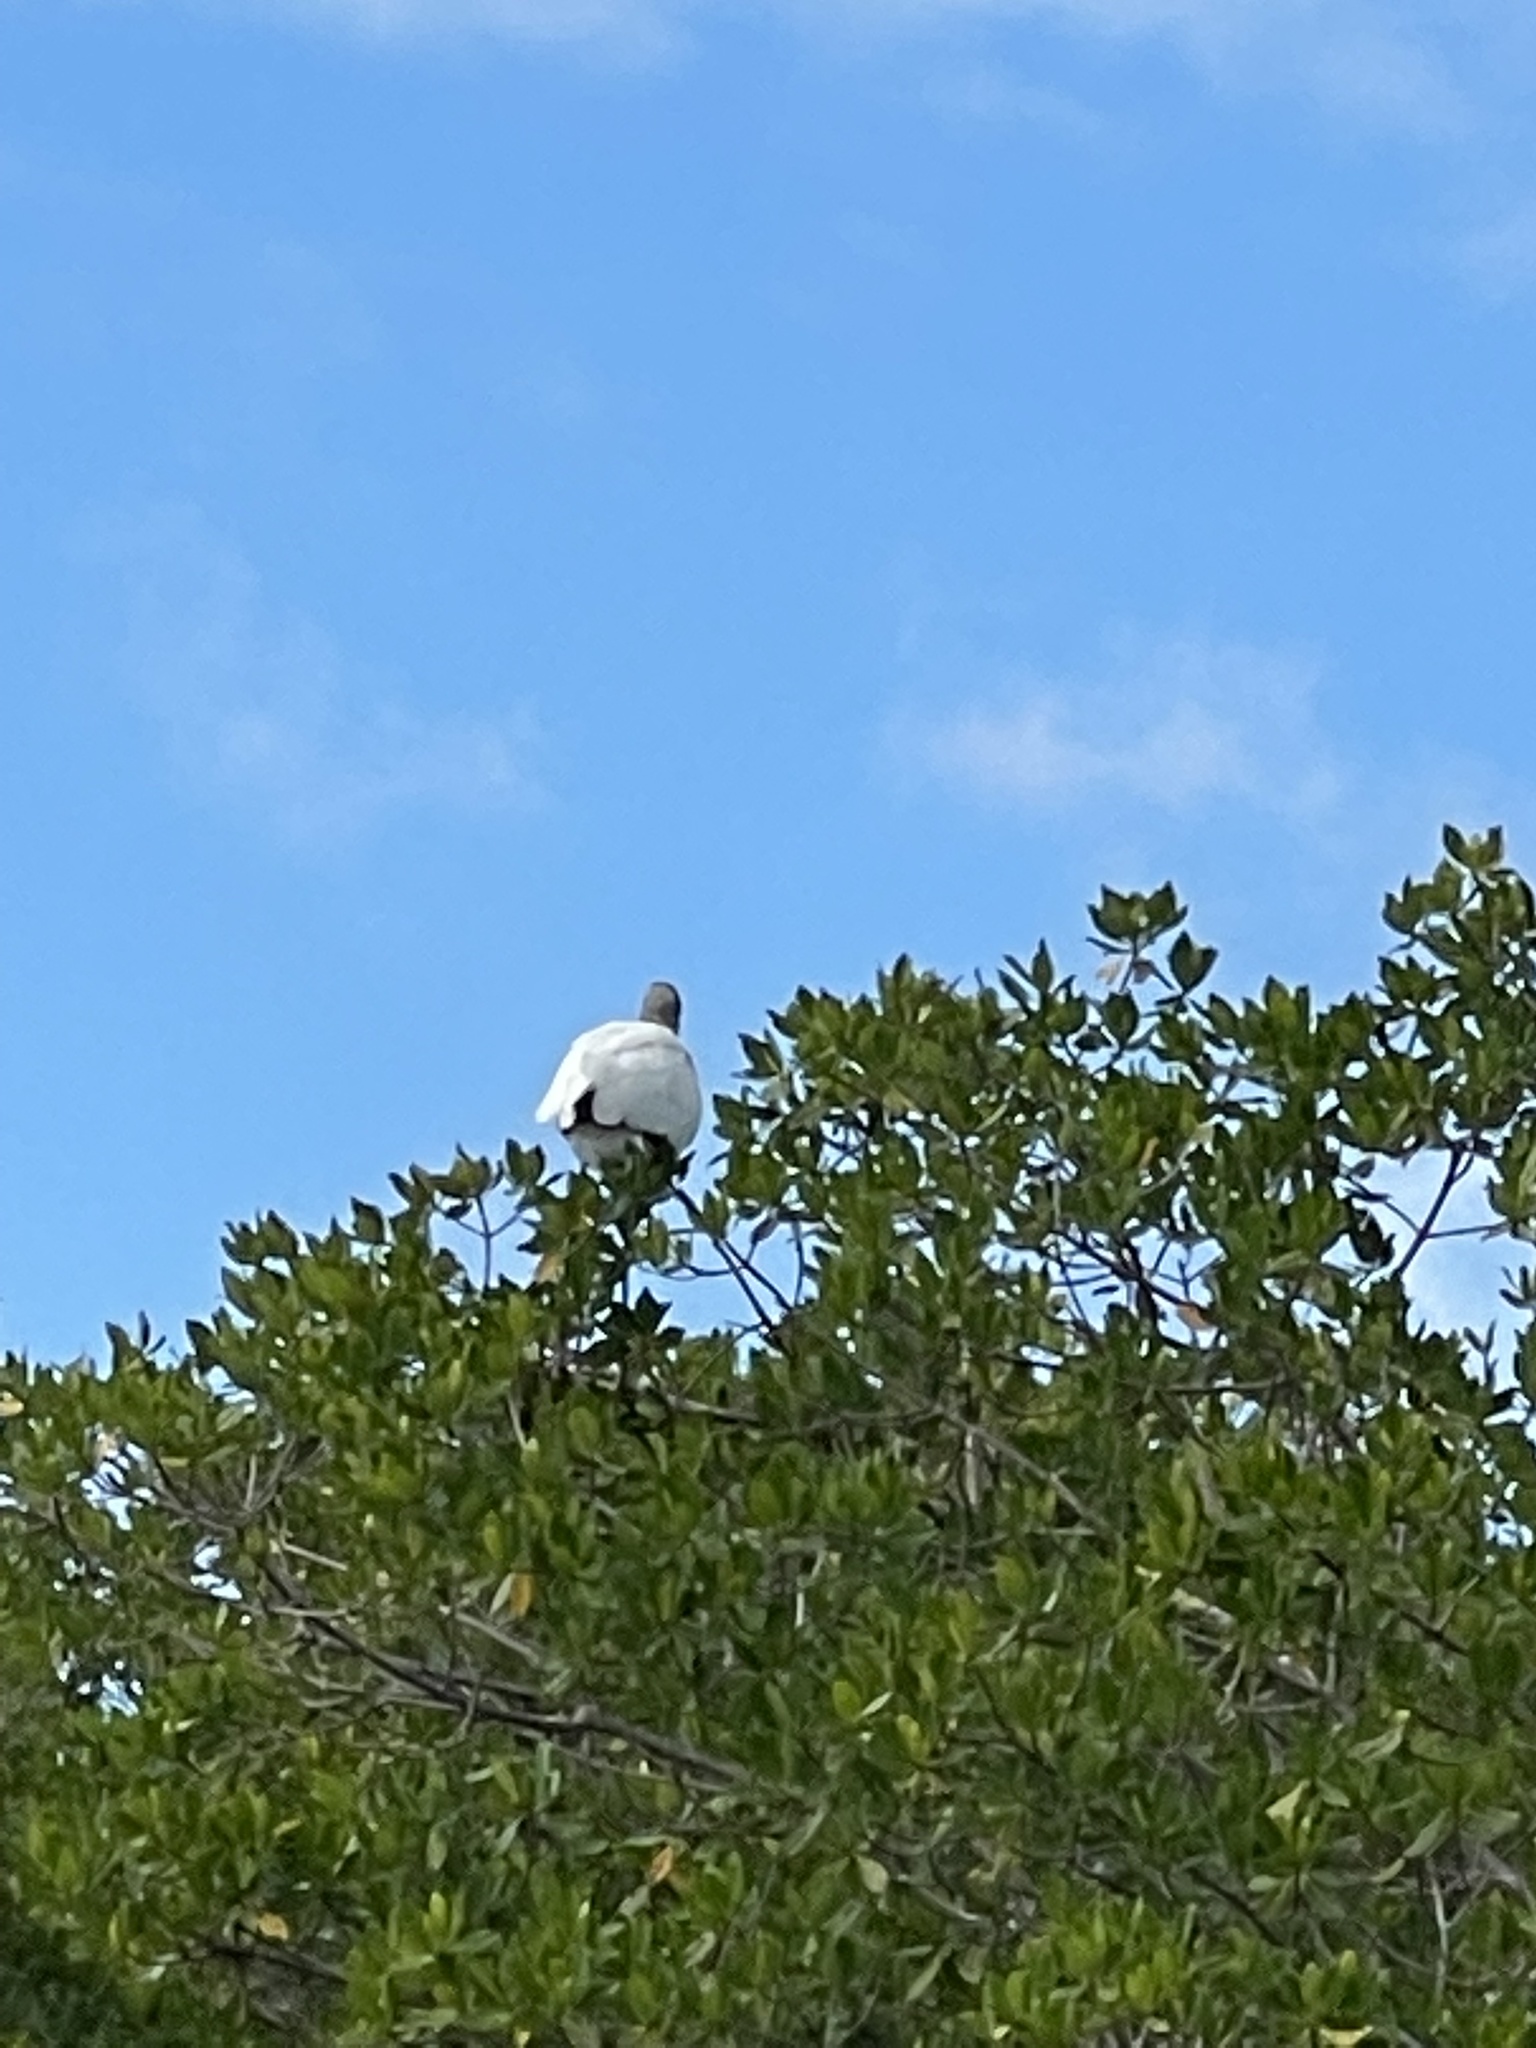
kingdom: Animalia
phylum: Chordata
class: Aves
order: Ciconiiformes
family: Ciconiidae
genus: Mycteria
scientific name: Mycteria americana
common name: Wood stork
